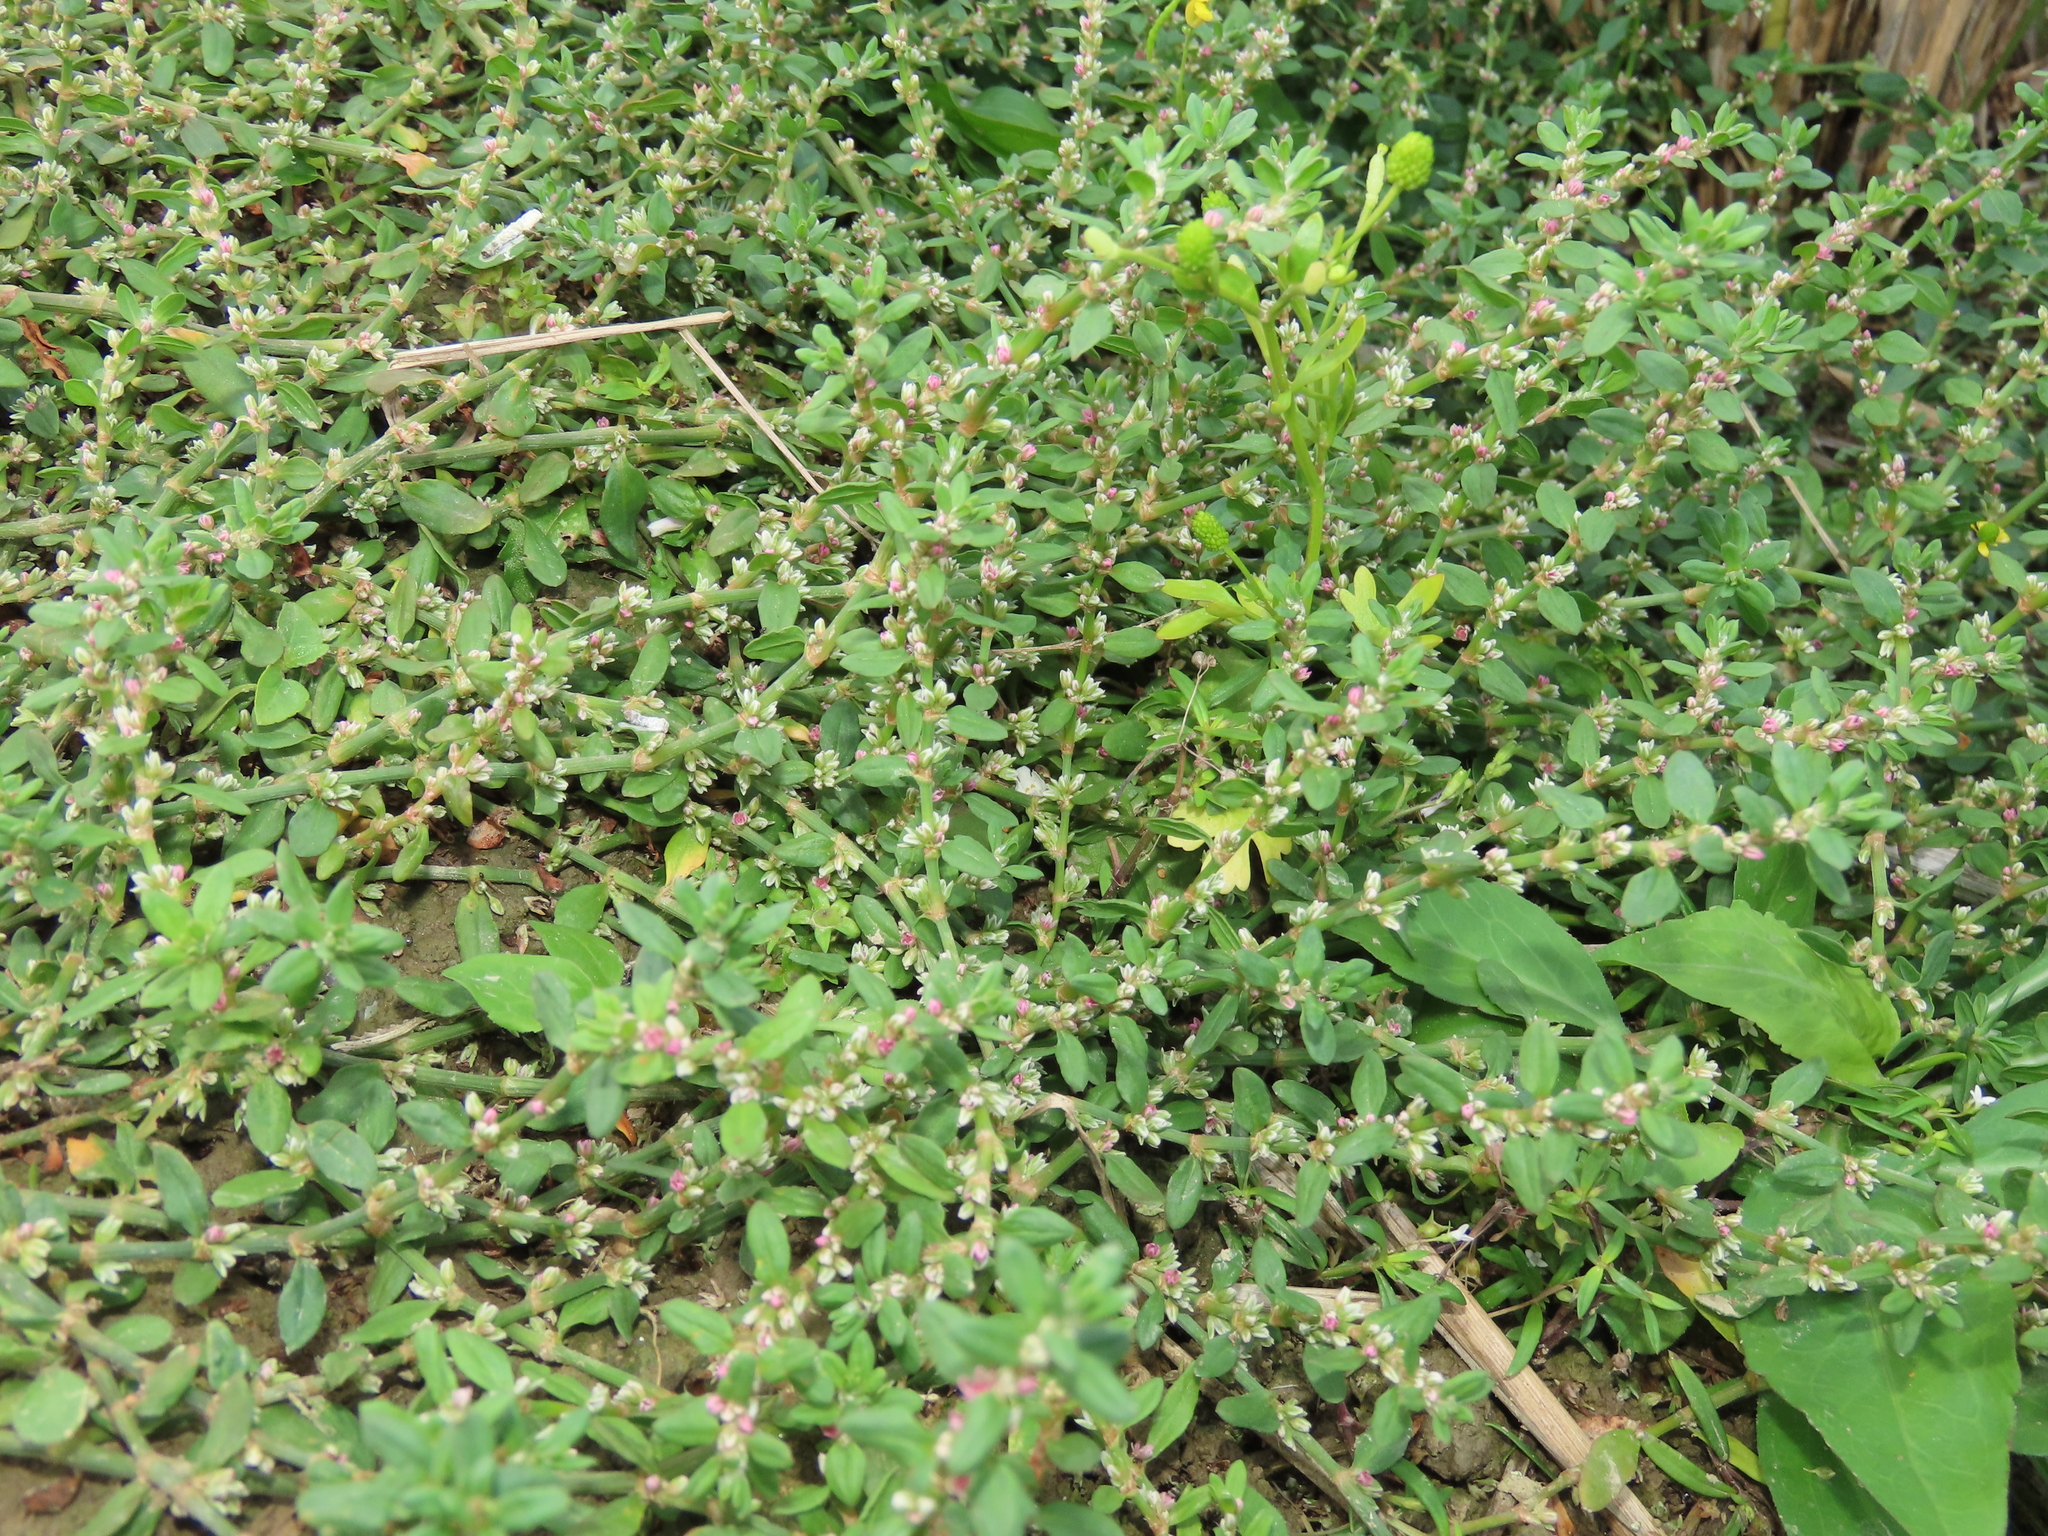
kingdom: Plantae
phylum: Tracheophyta
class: Magnoliopsida
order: Caryophyllales
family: Polygonaceae
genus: Polygonum
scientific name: Polygonum plebeium
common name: Common knotweed
